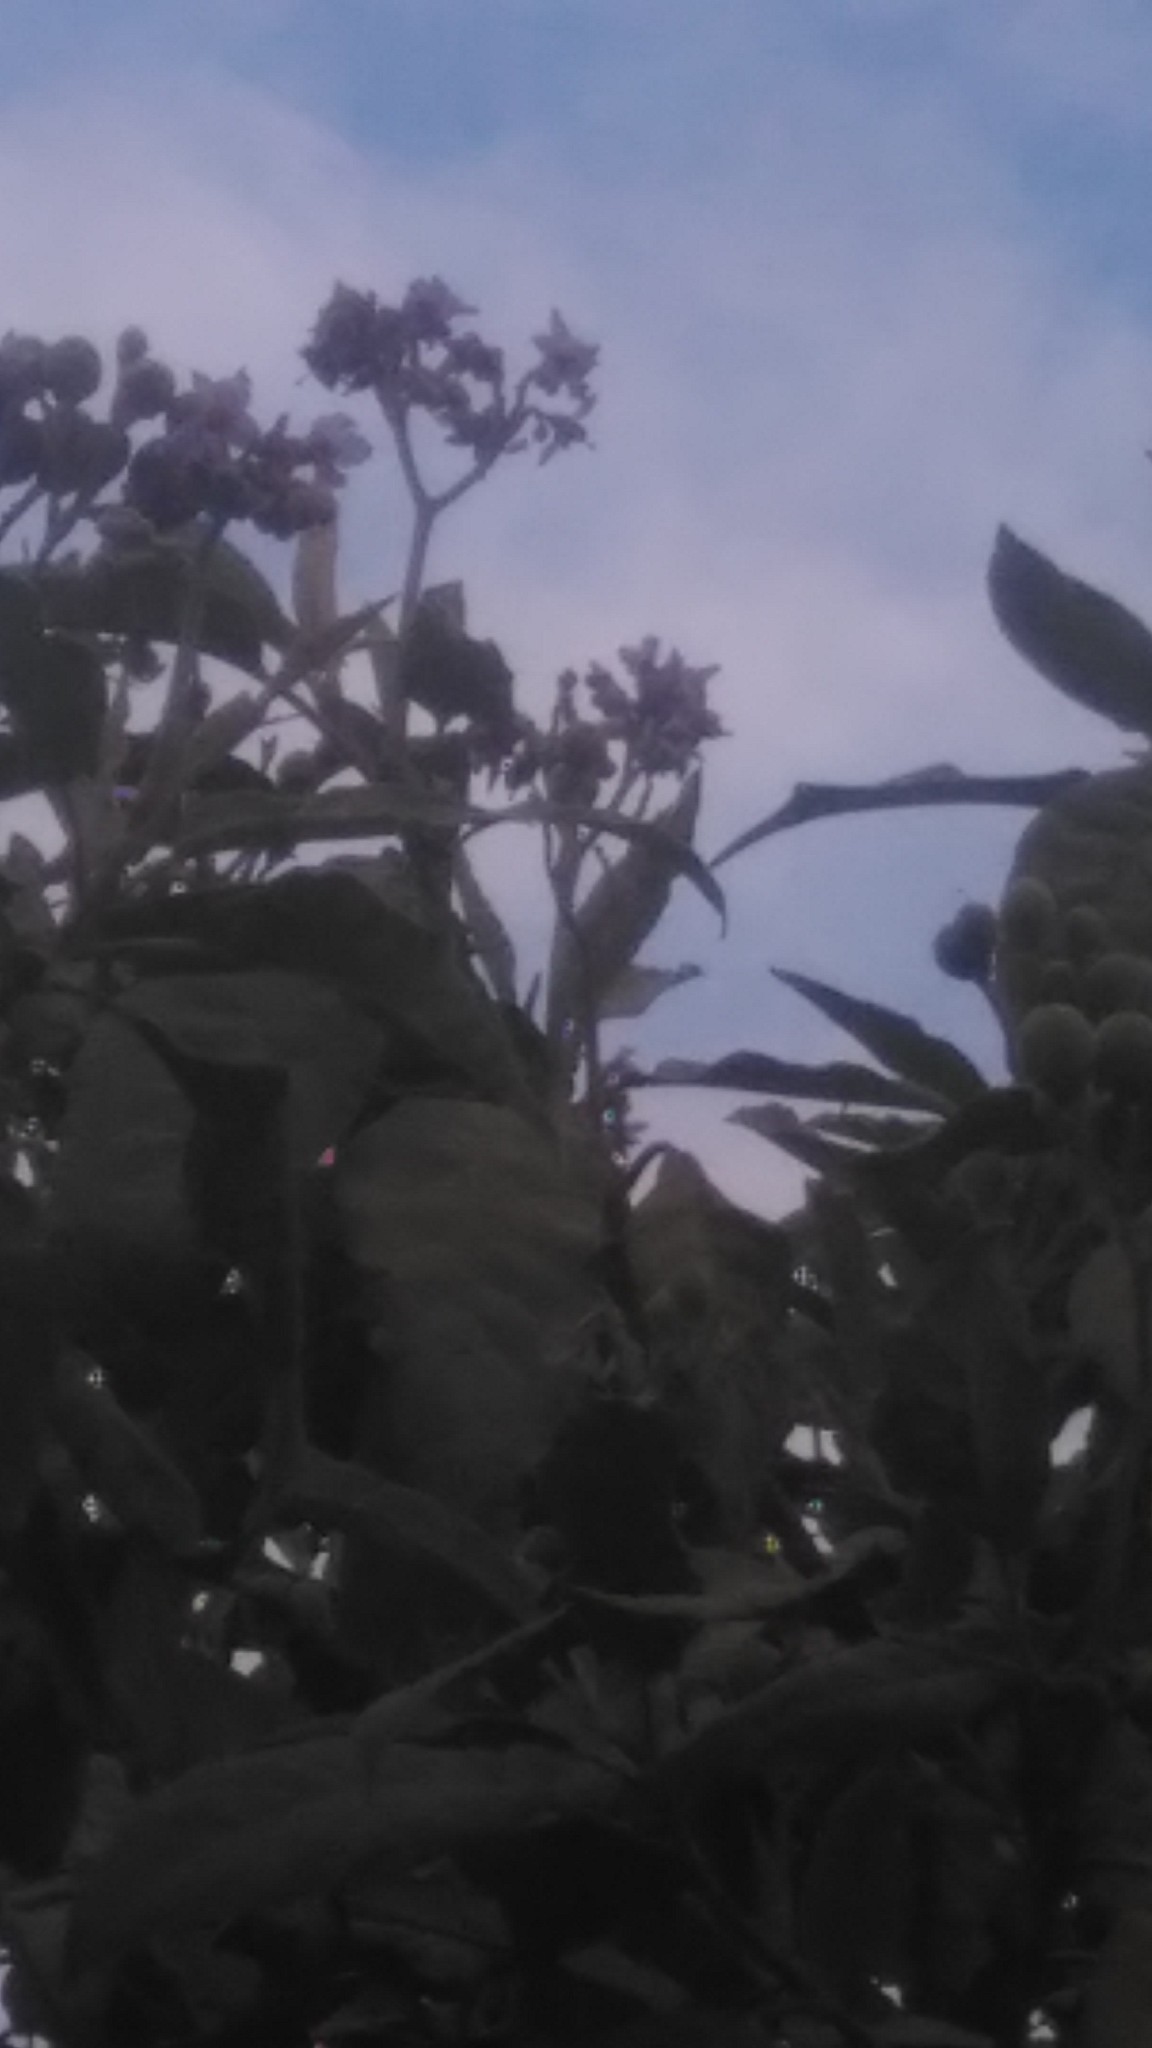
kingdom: Plantae
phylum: Tracheophyta
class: Magnoliopsida
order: Solanales
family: Solanaceae
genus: Solanum
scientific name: Solanum granulosoleprosum
